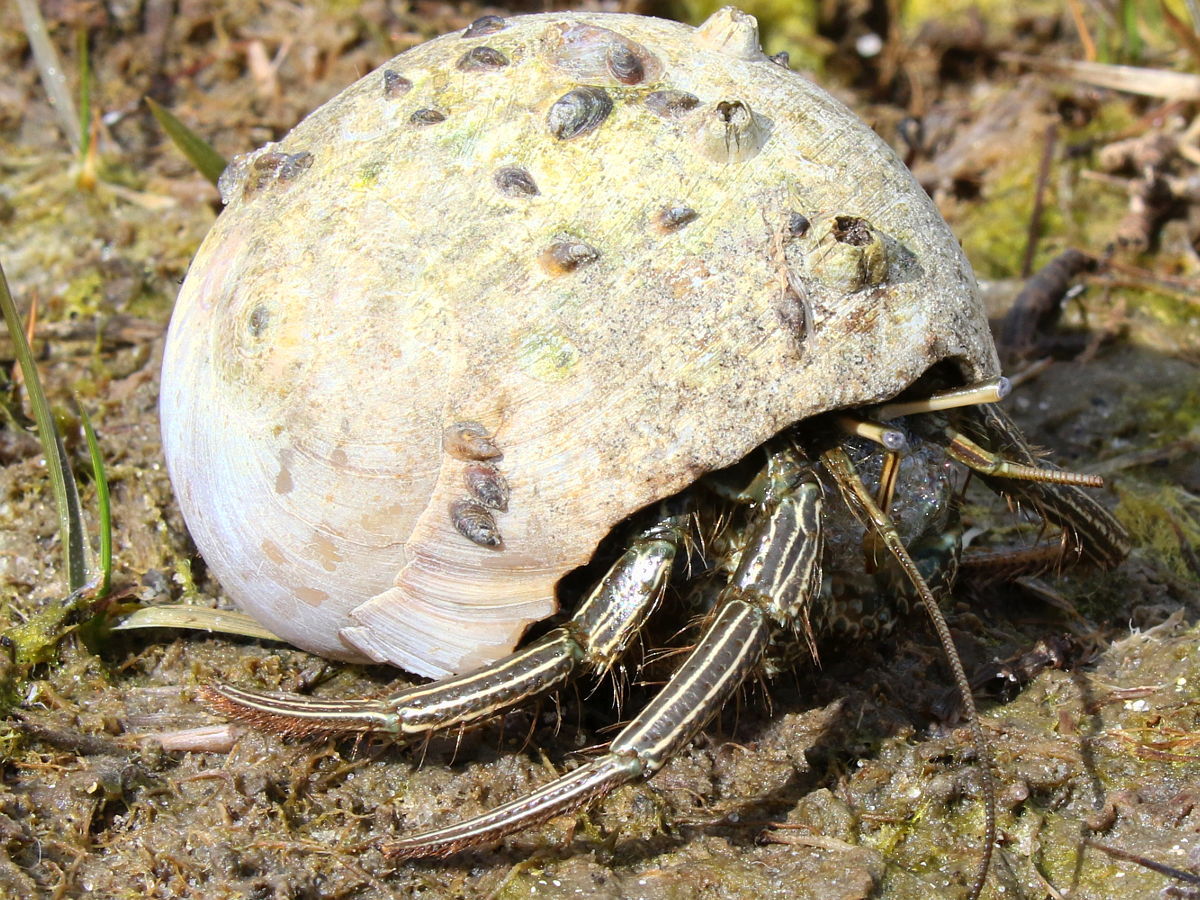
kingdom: Animalia
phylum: Arthropoda
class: Malacostraca
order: Decapoda
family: Diogenidae
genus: Clibanarius
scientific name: Clibanarius vittatus
